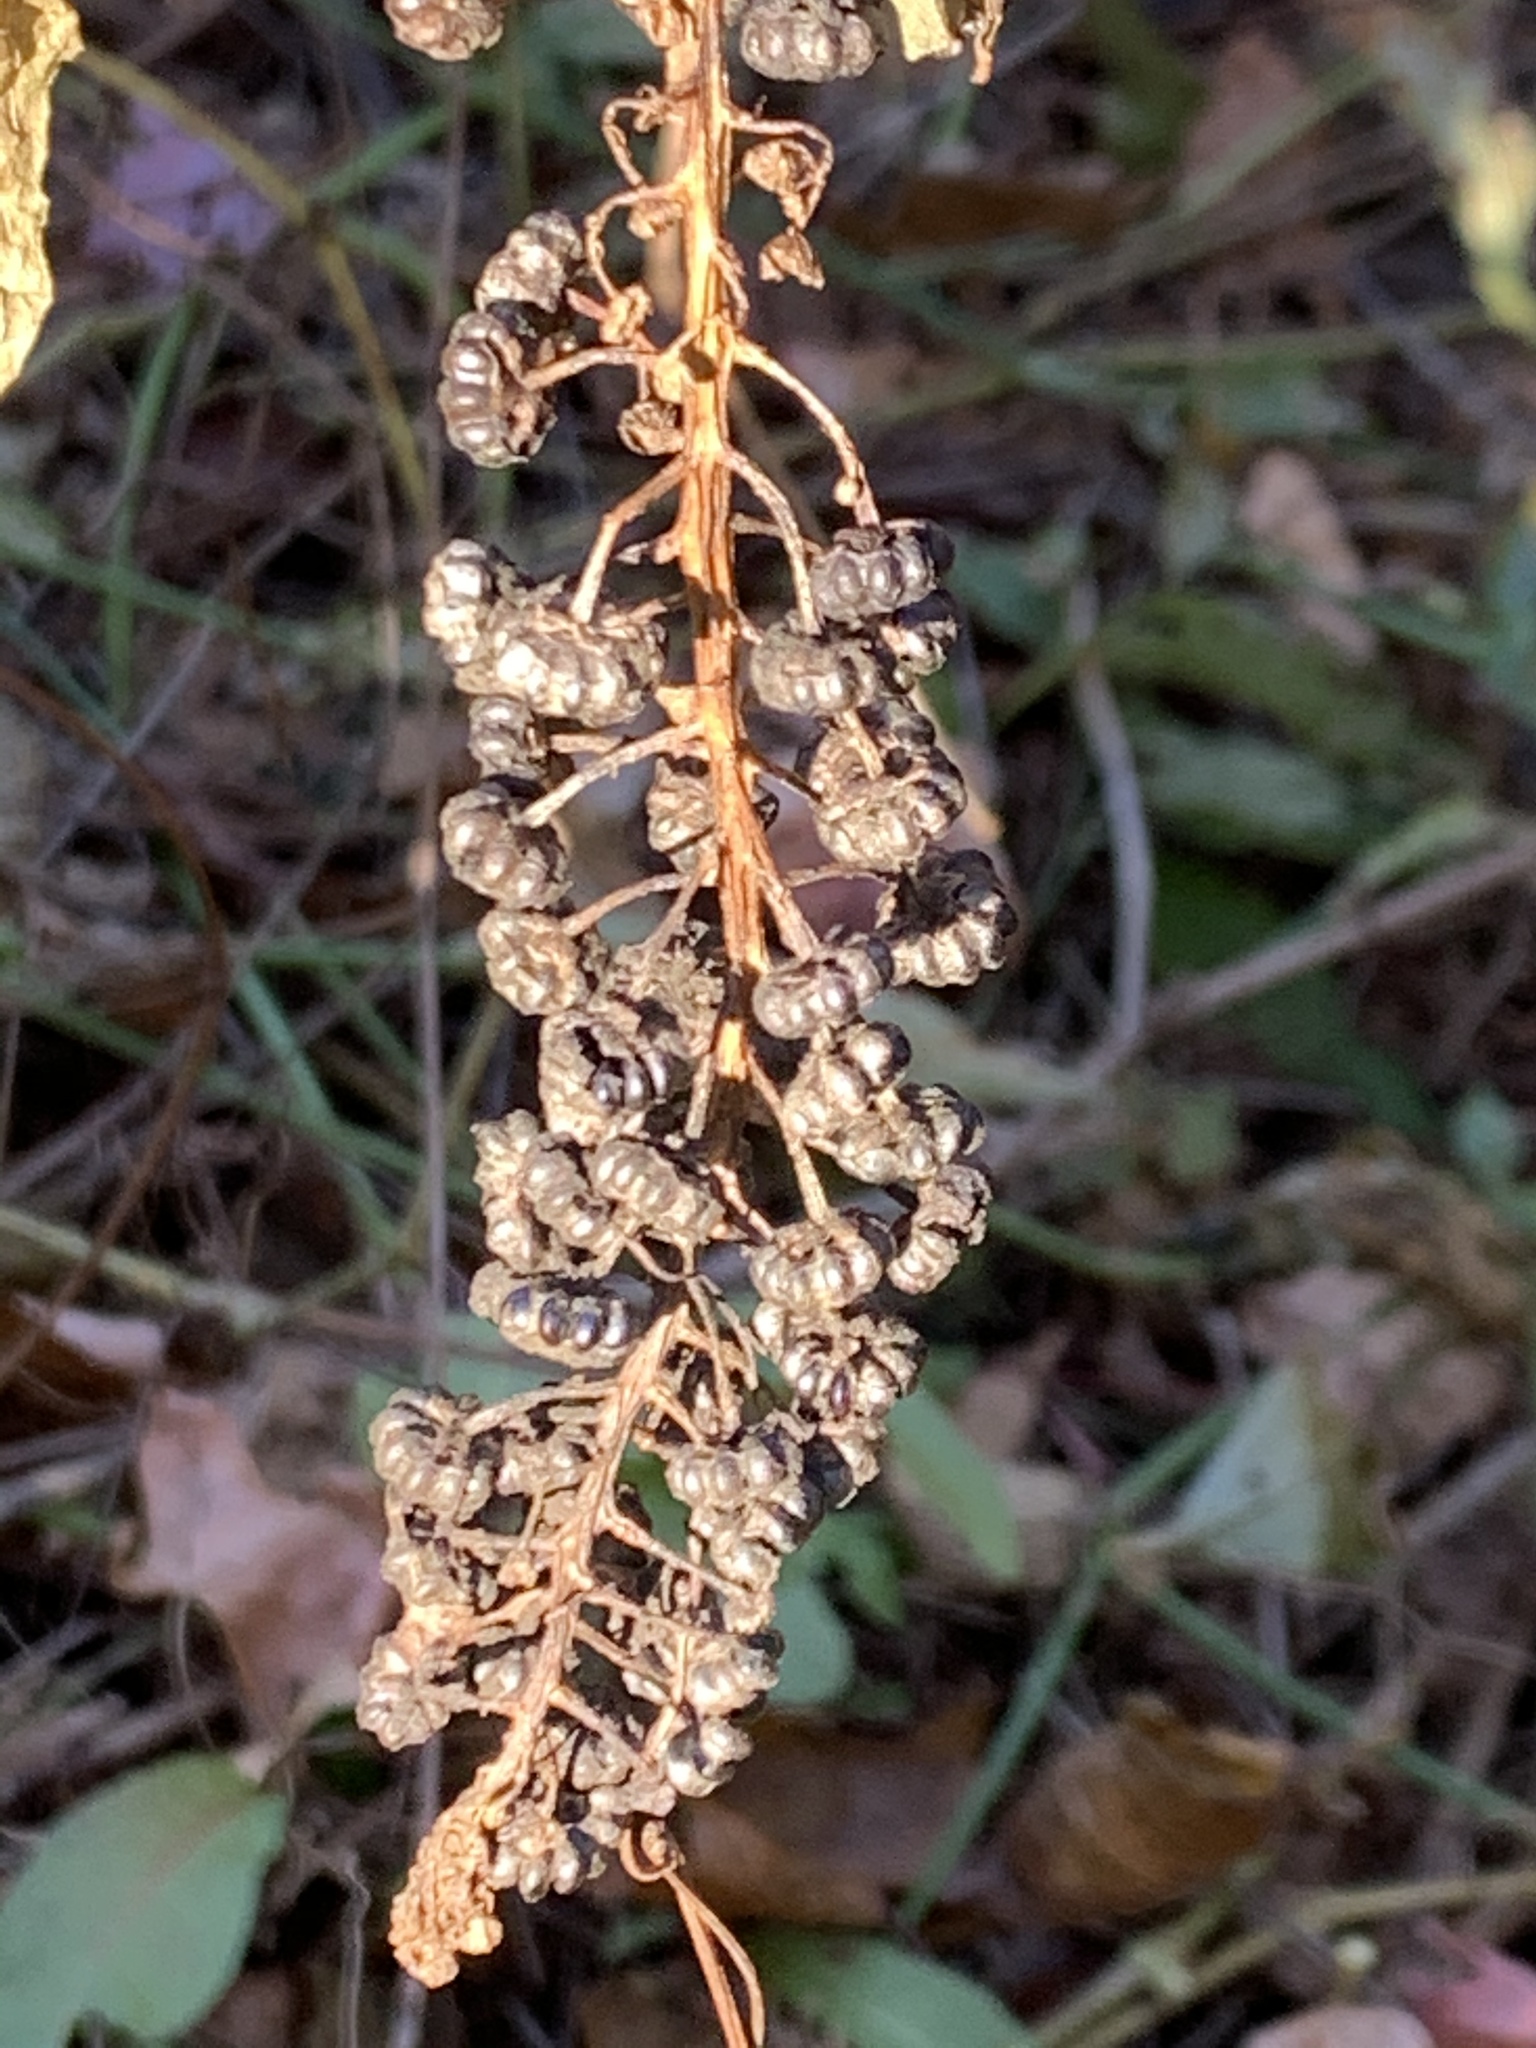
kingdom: Plantae
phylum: Tracheophyta
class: Magnoliopsida
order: Caryophyllales
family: Phytolaccaceae
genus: Phytolacca
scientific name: Phytolacca americana
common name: American pokeweed
